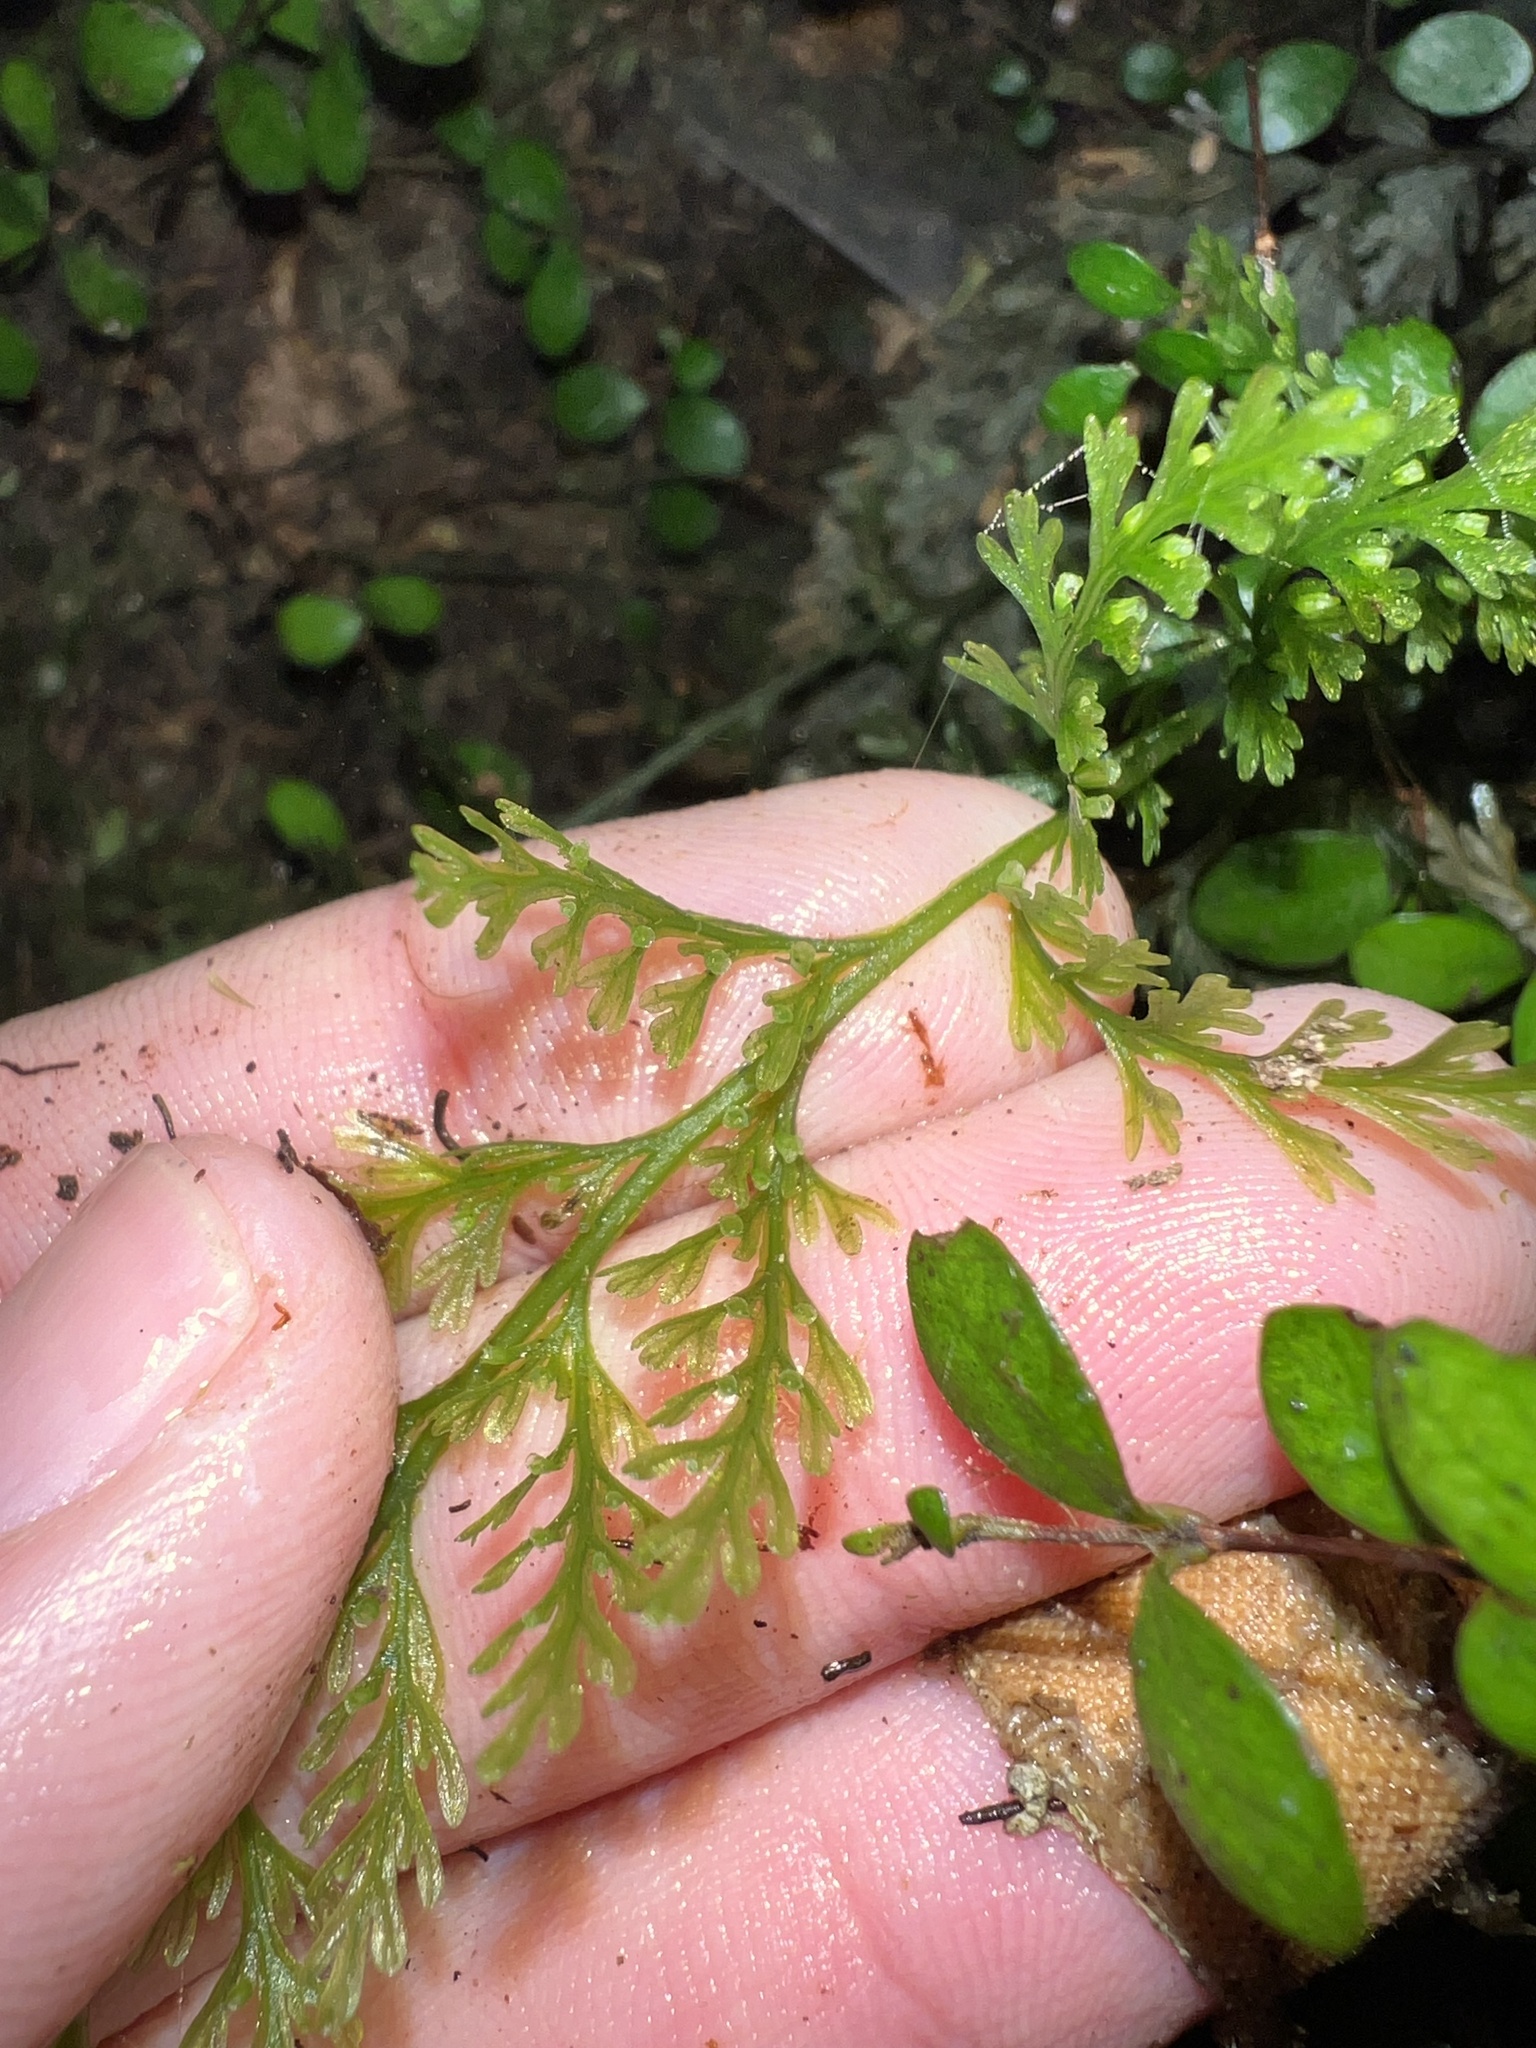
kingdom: Plantae
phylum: Tracheophyta
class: Polypodiopsida
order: Hymenophyllales
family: Hymenophyllaceae
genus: Abrodictyum
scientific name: Abrodictyum strictum
